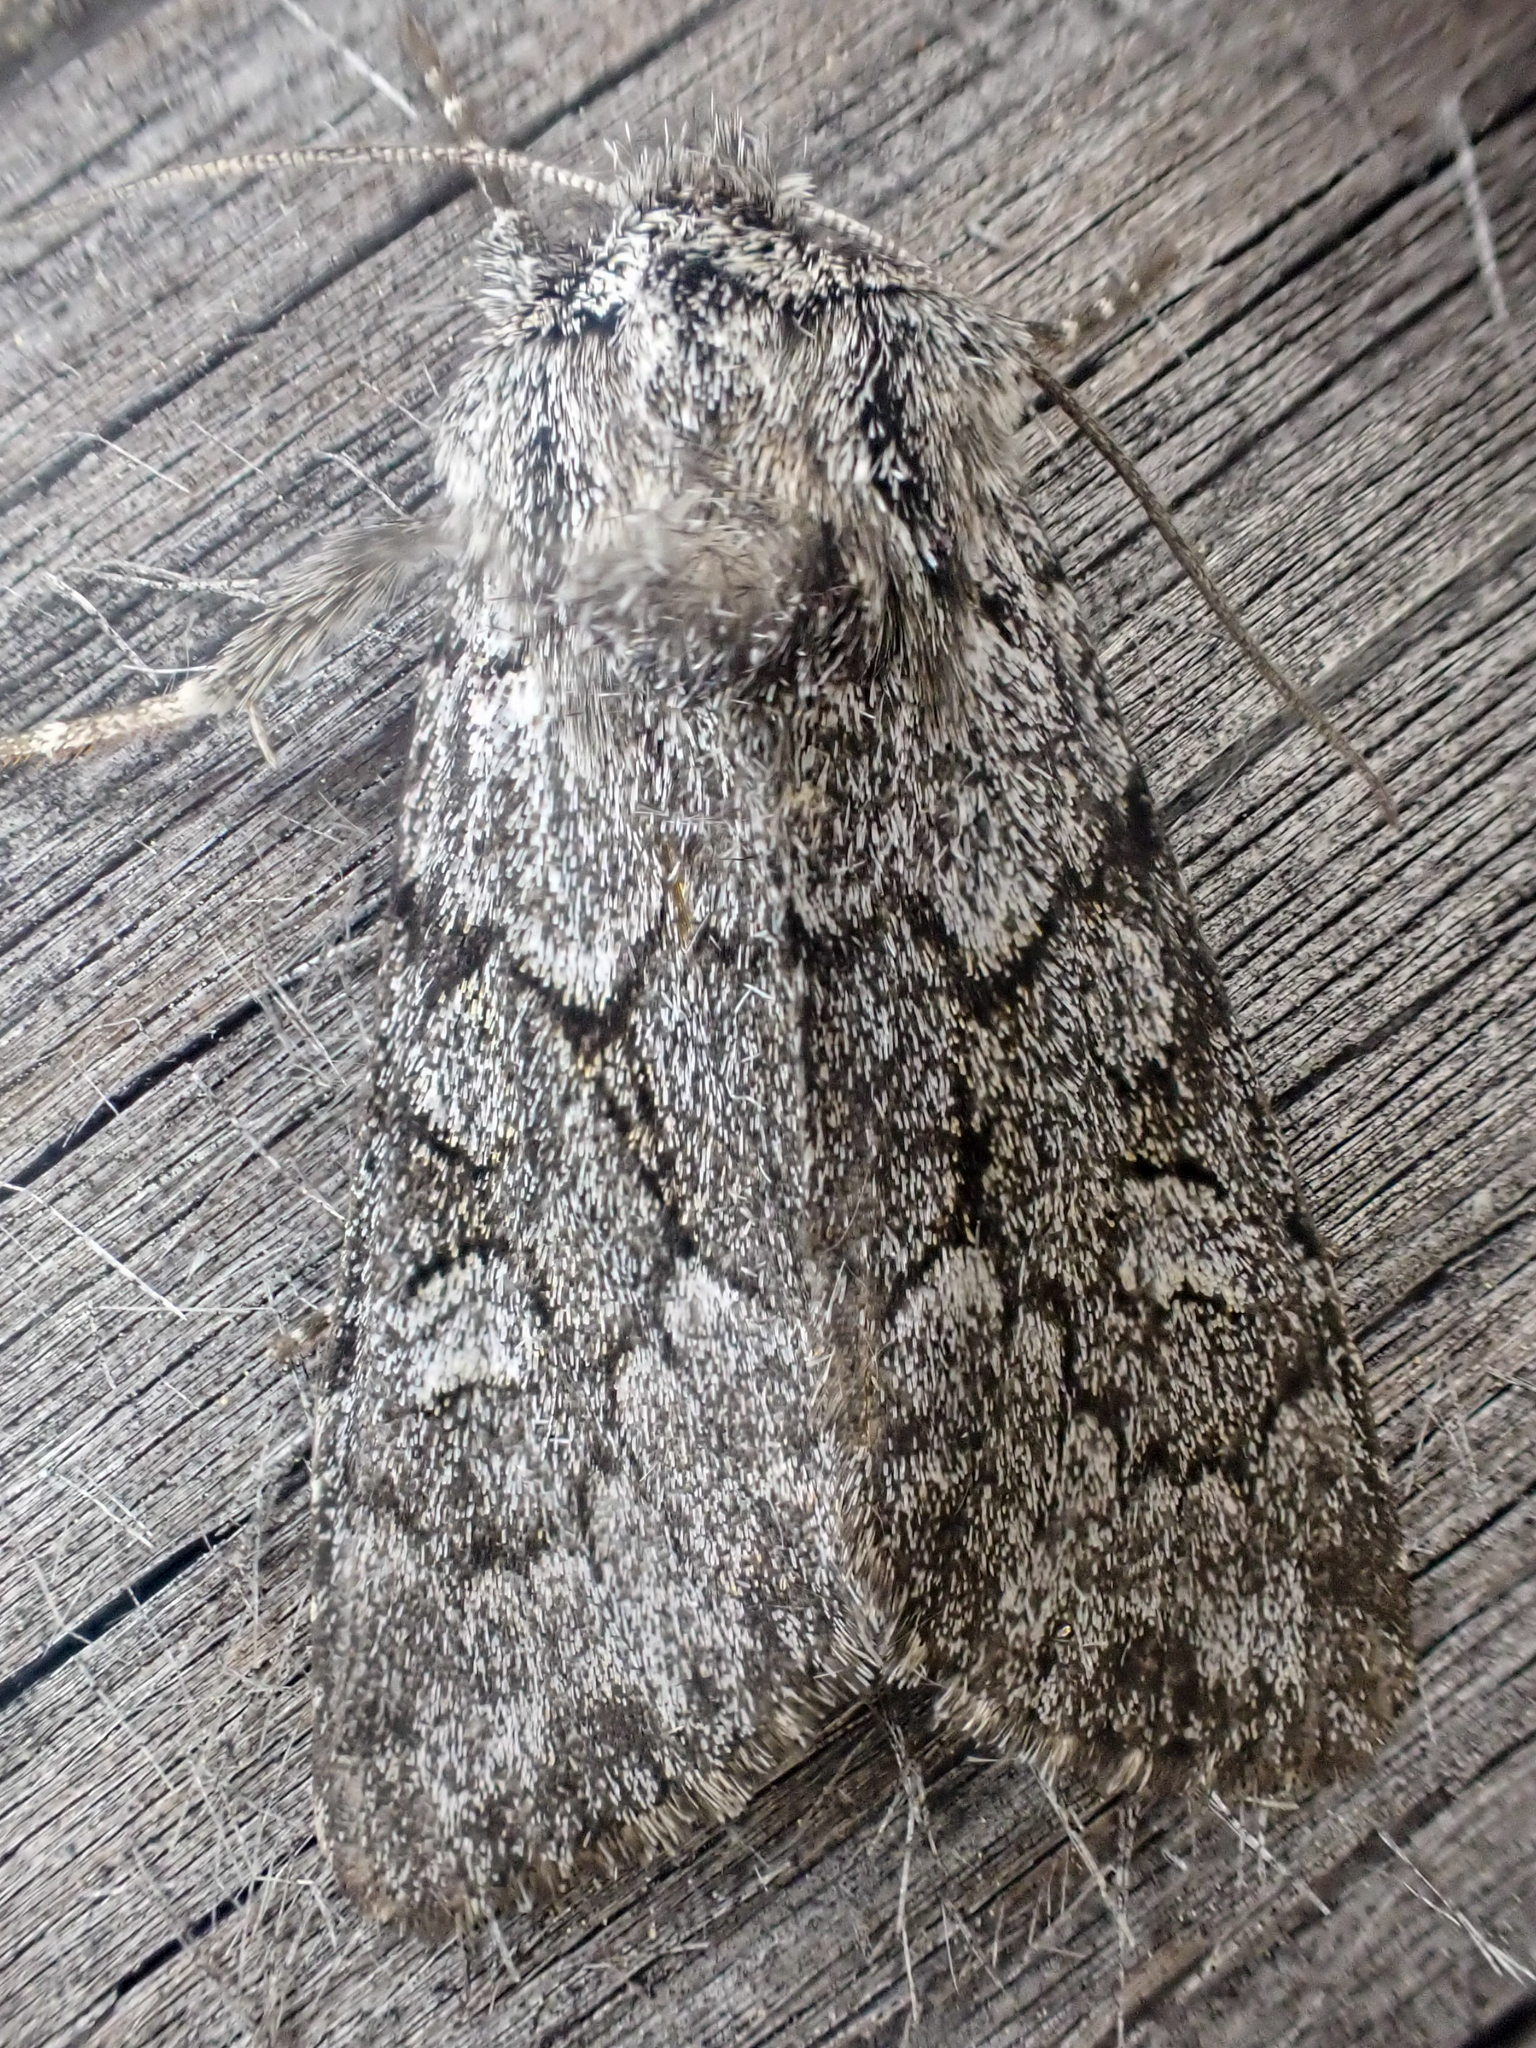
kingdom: Animalia
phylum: Arthropoda
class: Insecta
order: Lepidoptera
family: Noctuidae
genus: Lasionycta
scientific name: Lasionycta fergusoni
